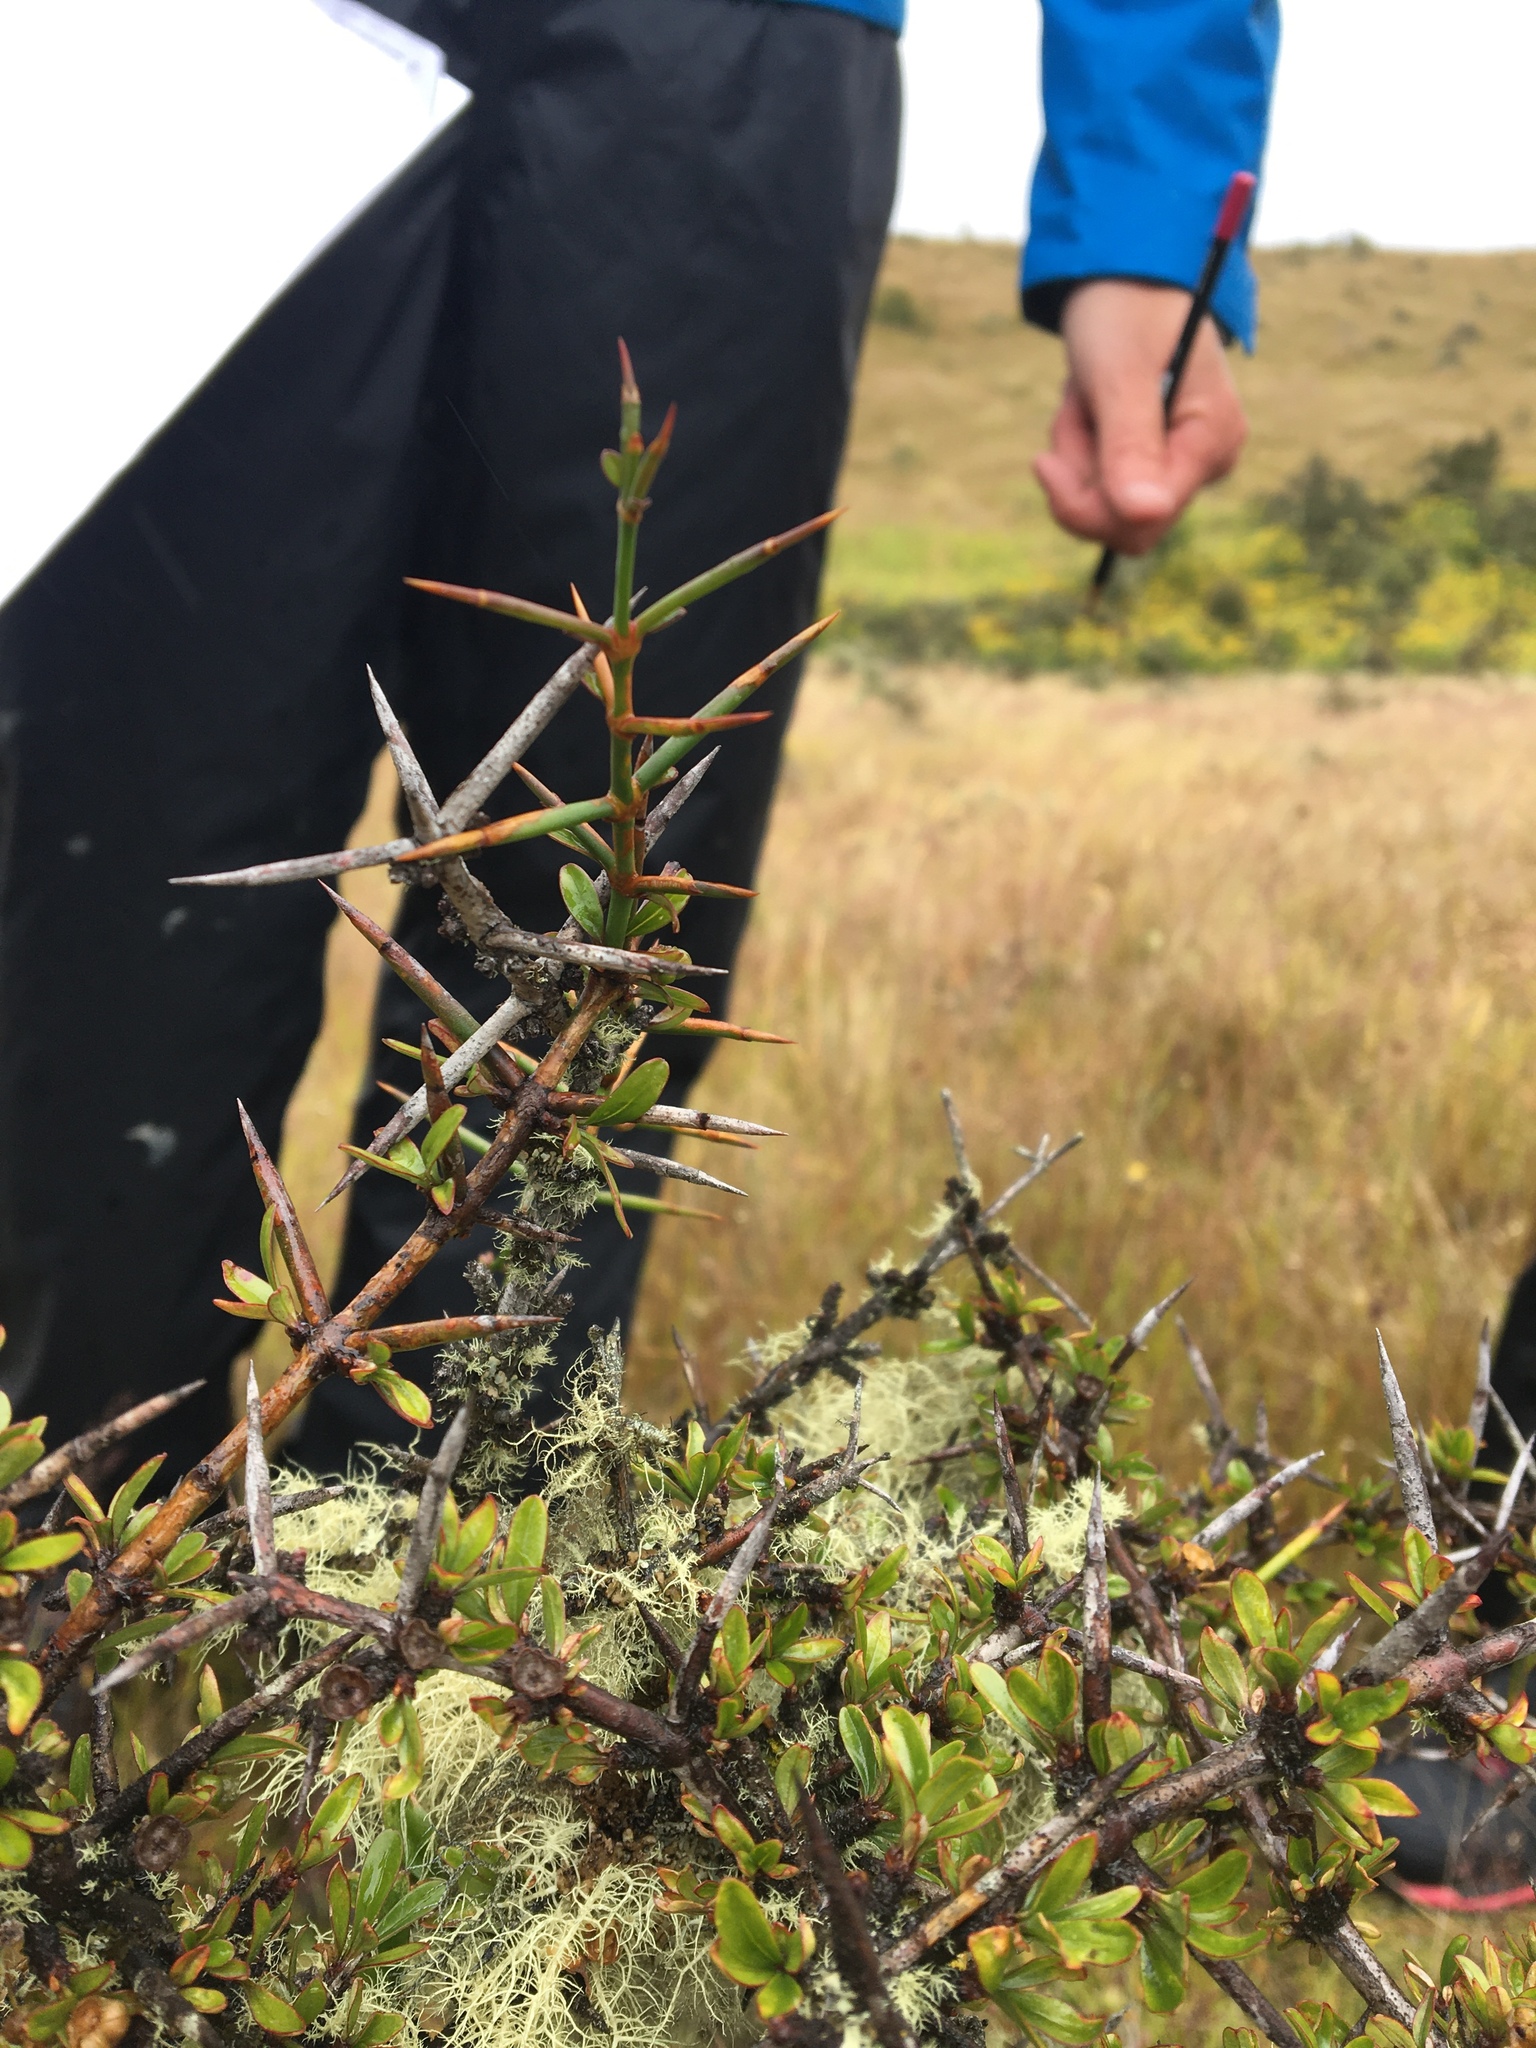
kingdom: Plantae
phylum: Tracheophyta
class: Magnoliopsida
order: Rosales
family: Rhamnaceae
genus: Discaria
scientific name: Discaria toumatou
